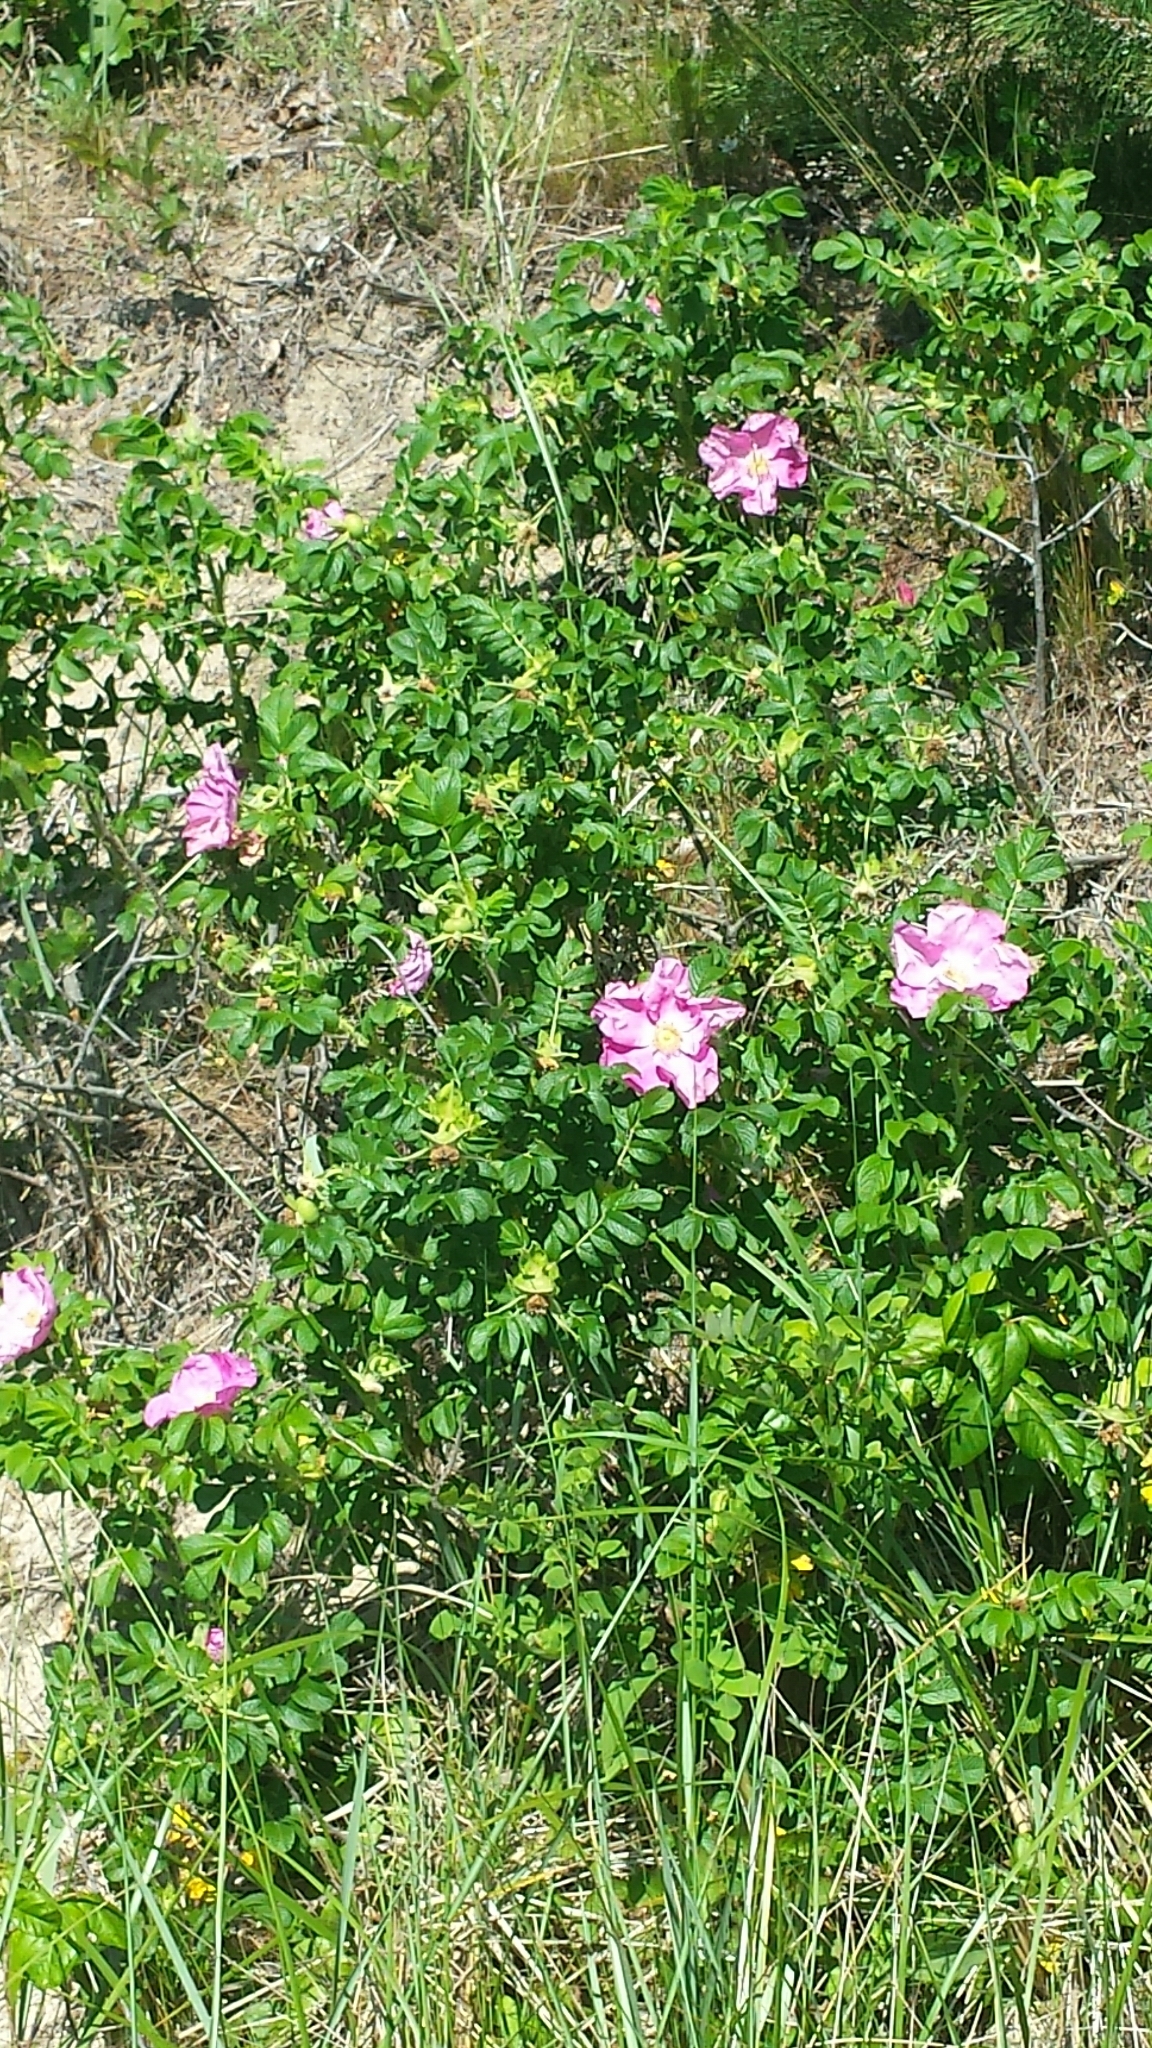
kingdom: Plantae
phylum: Tracheophyta
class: Magnoliopsida
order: Rosales
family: Rosaceae
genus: Rosa
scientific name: Rosa rugosa
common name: Japanese rose
